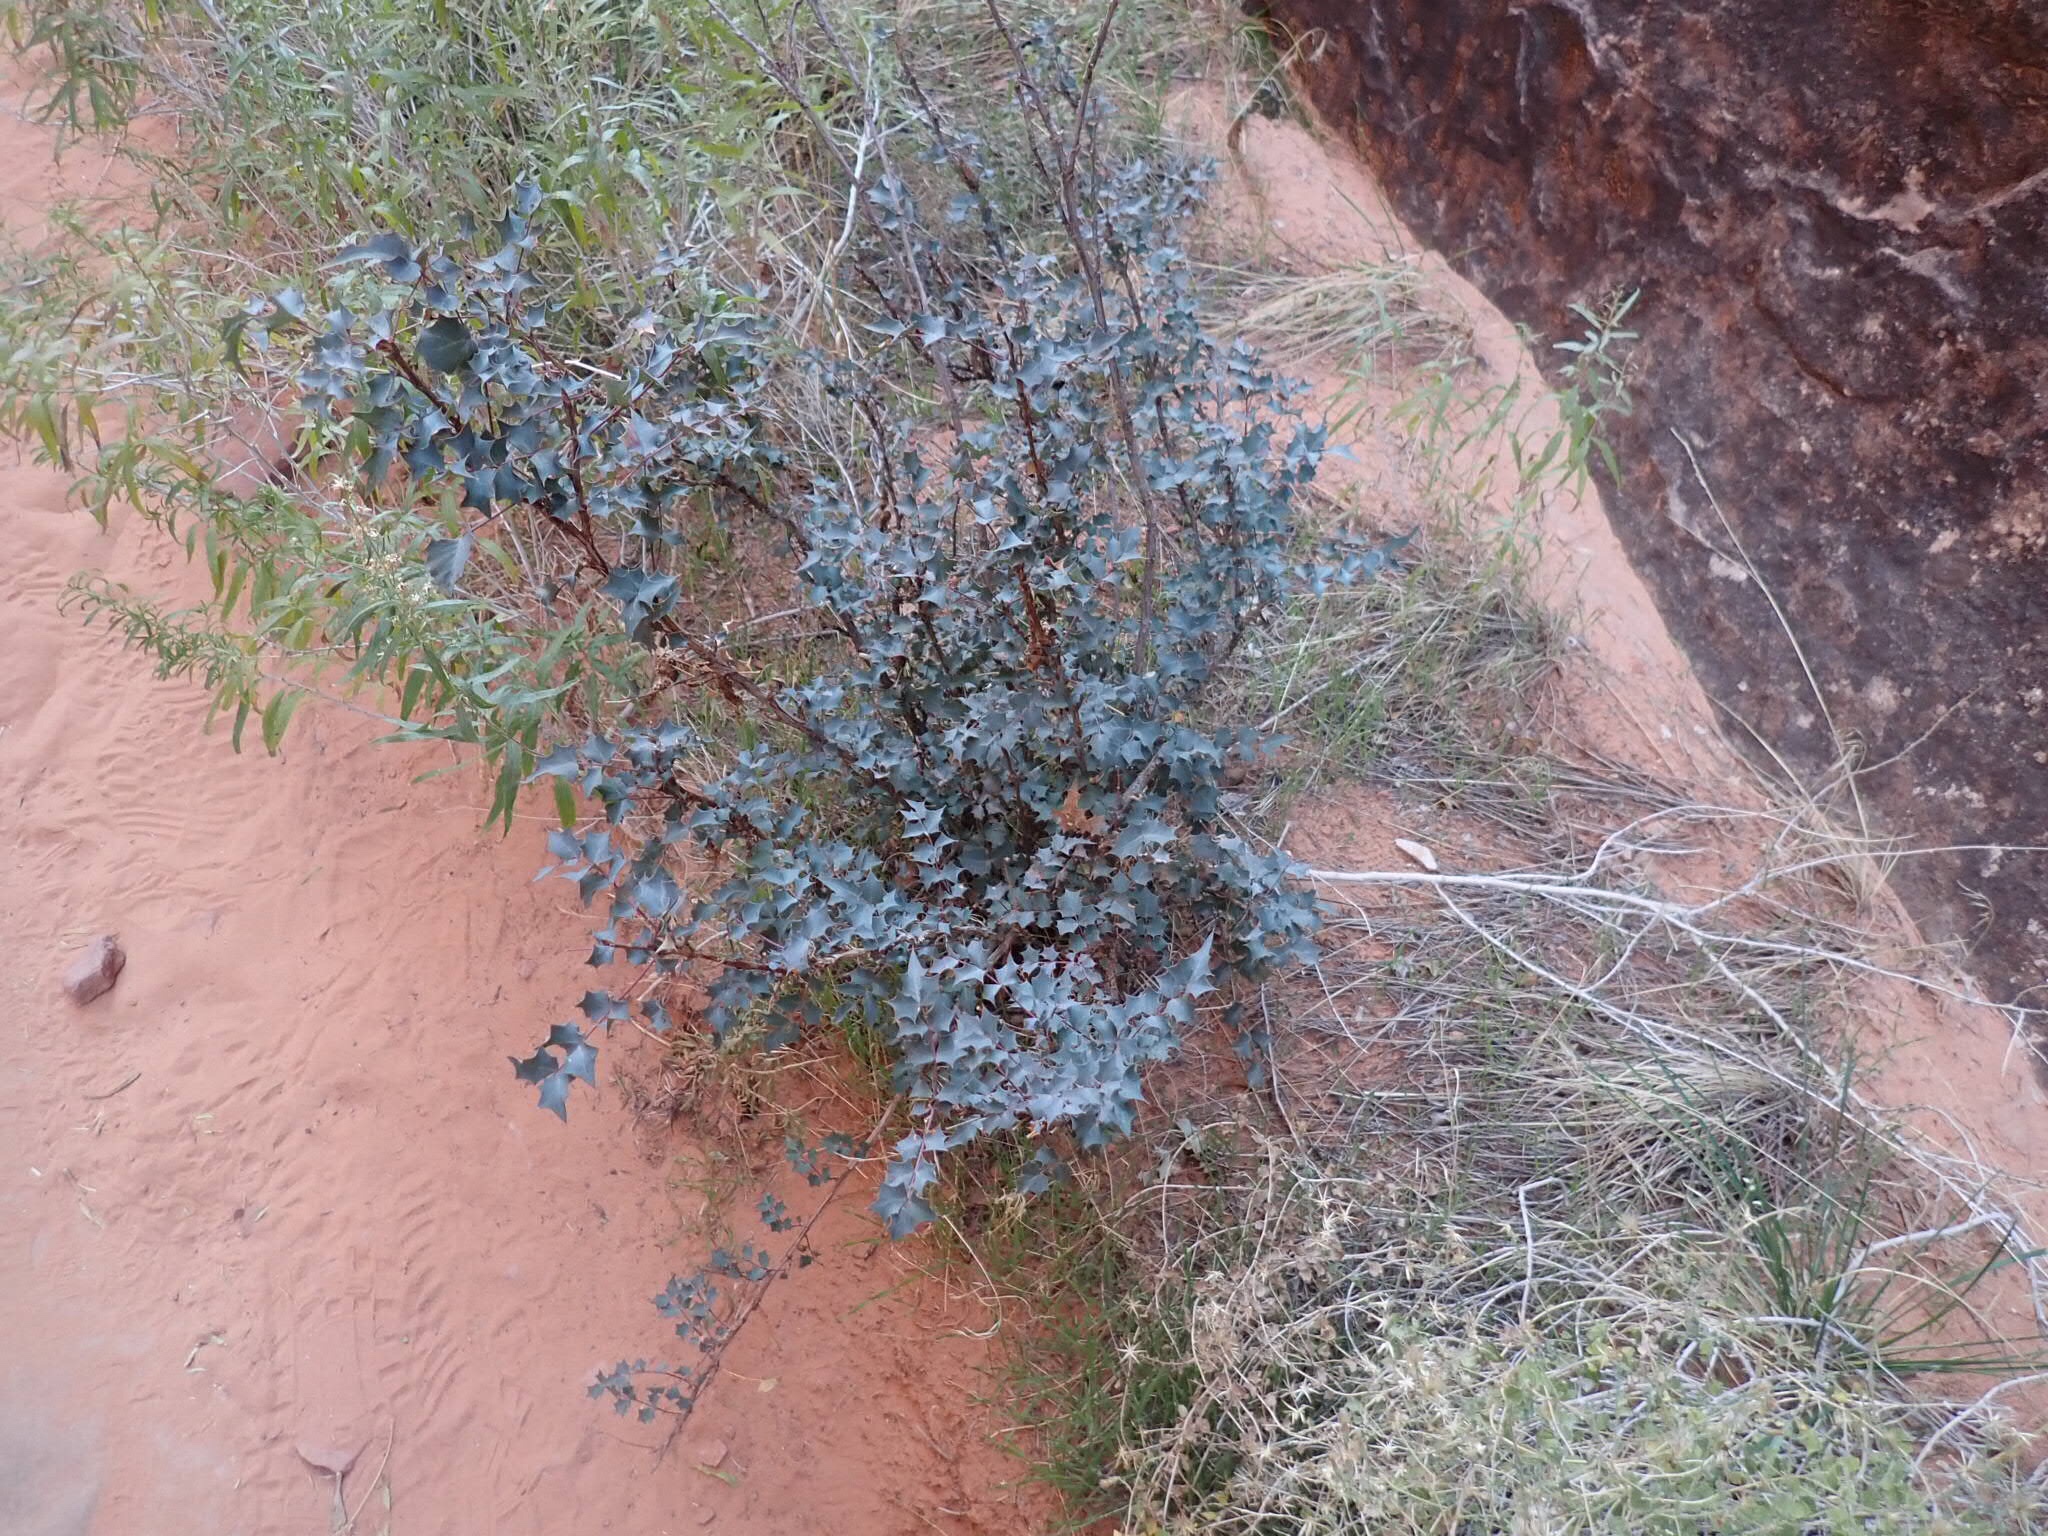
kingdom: Plantae
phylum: Tracheophyta
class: Magnoliopsida
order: Ranunculales
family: Berberidaceae
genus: Alloberberis
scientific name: Alloberberis fremontii
